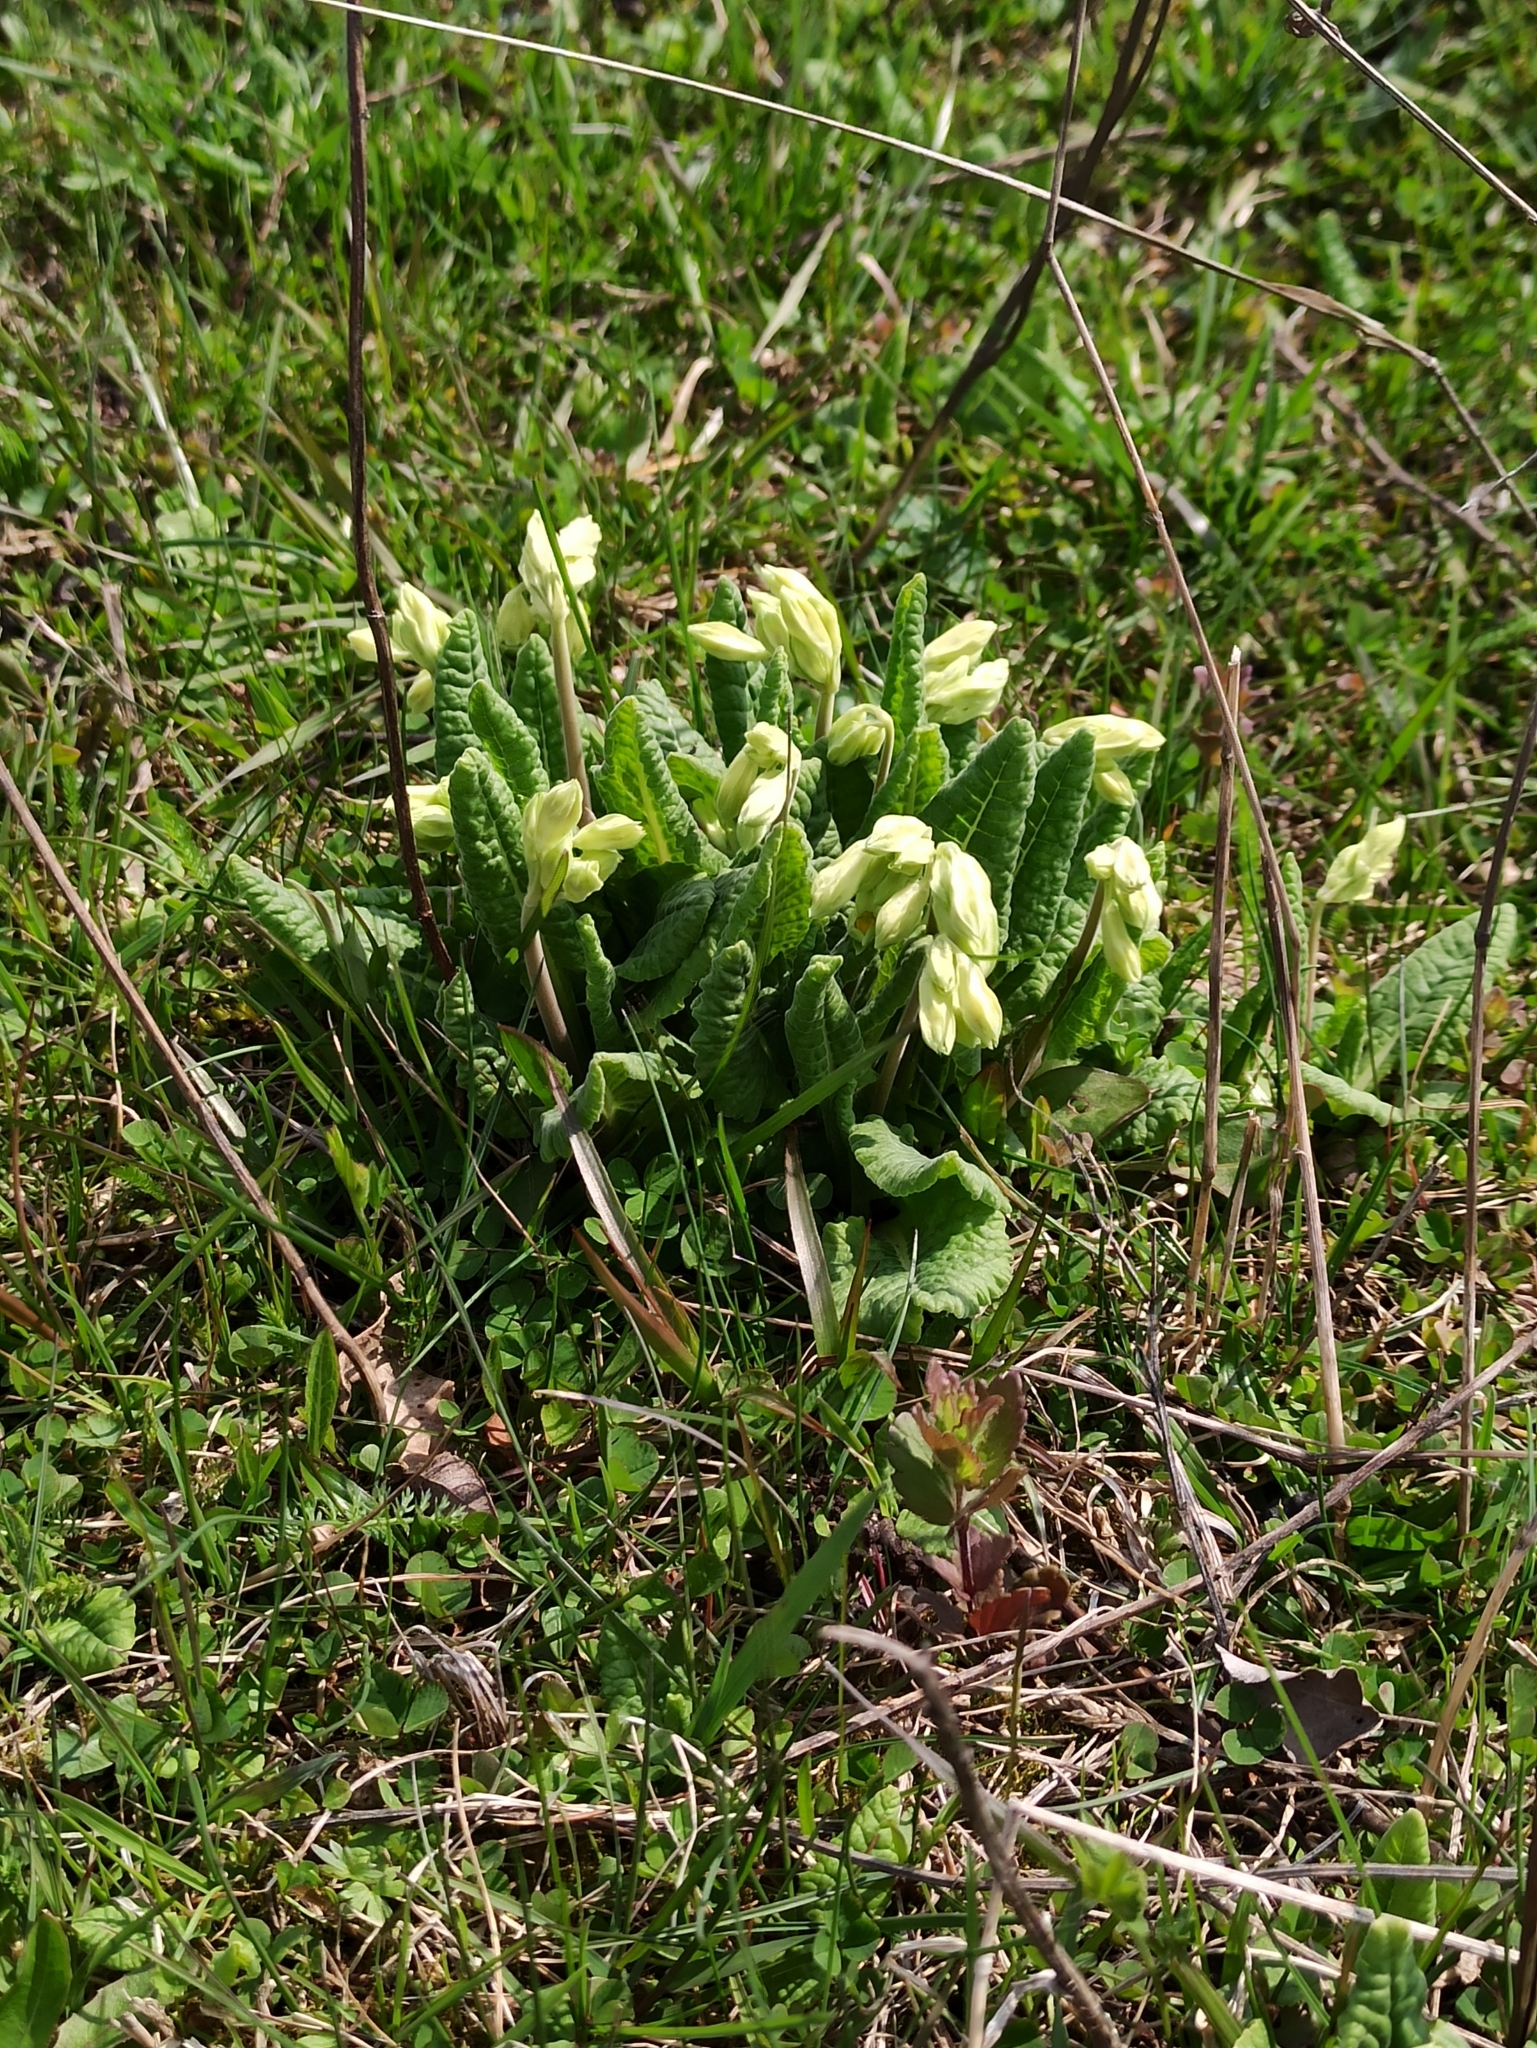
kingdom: Plantae
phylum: Tracheophyta
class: Magnoliopsida
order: Ericales
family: Primulaceae
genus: Primula
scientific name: Primula veris
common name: Cowslip
